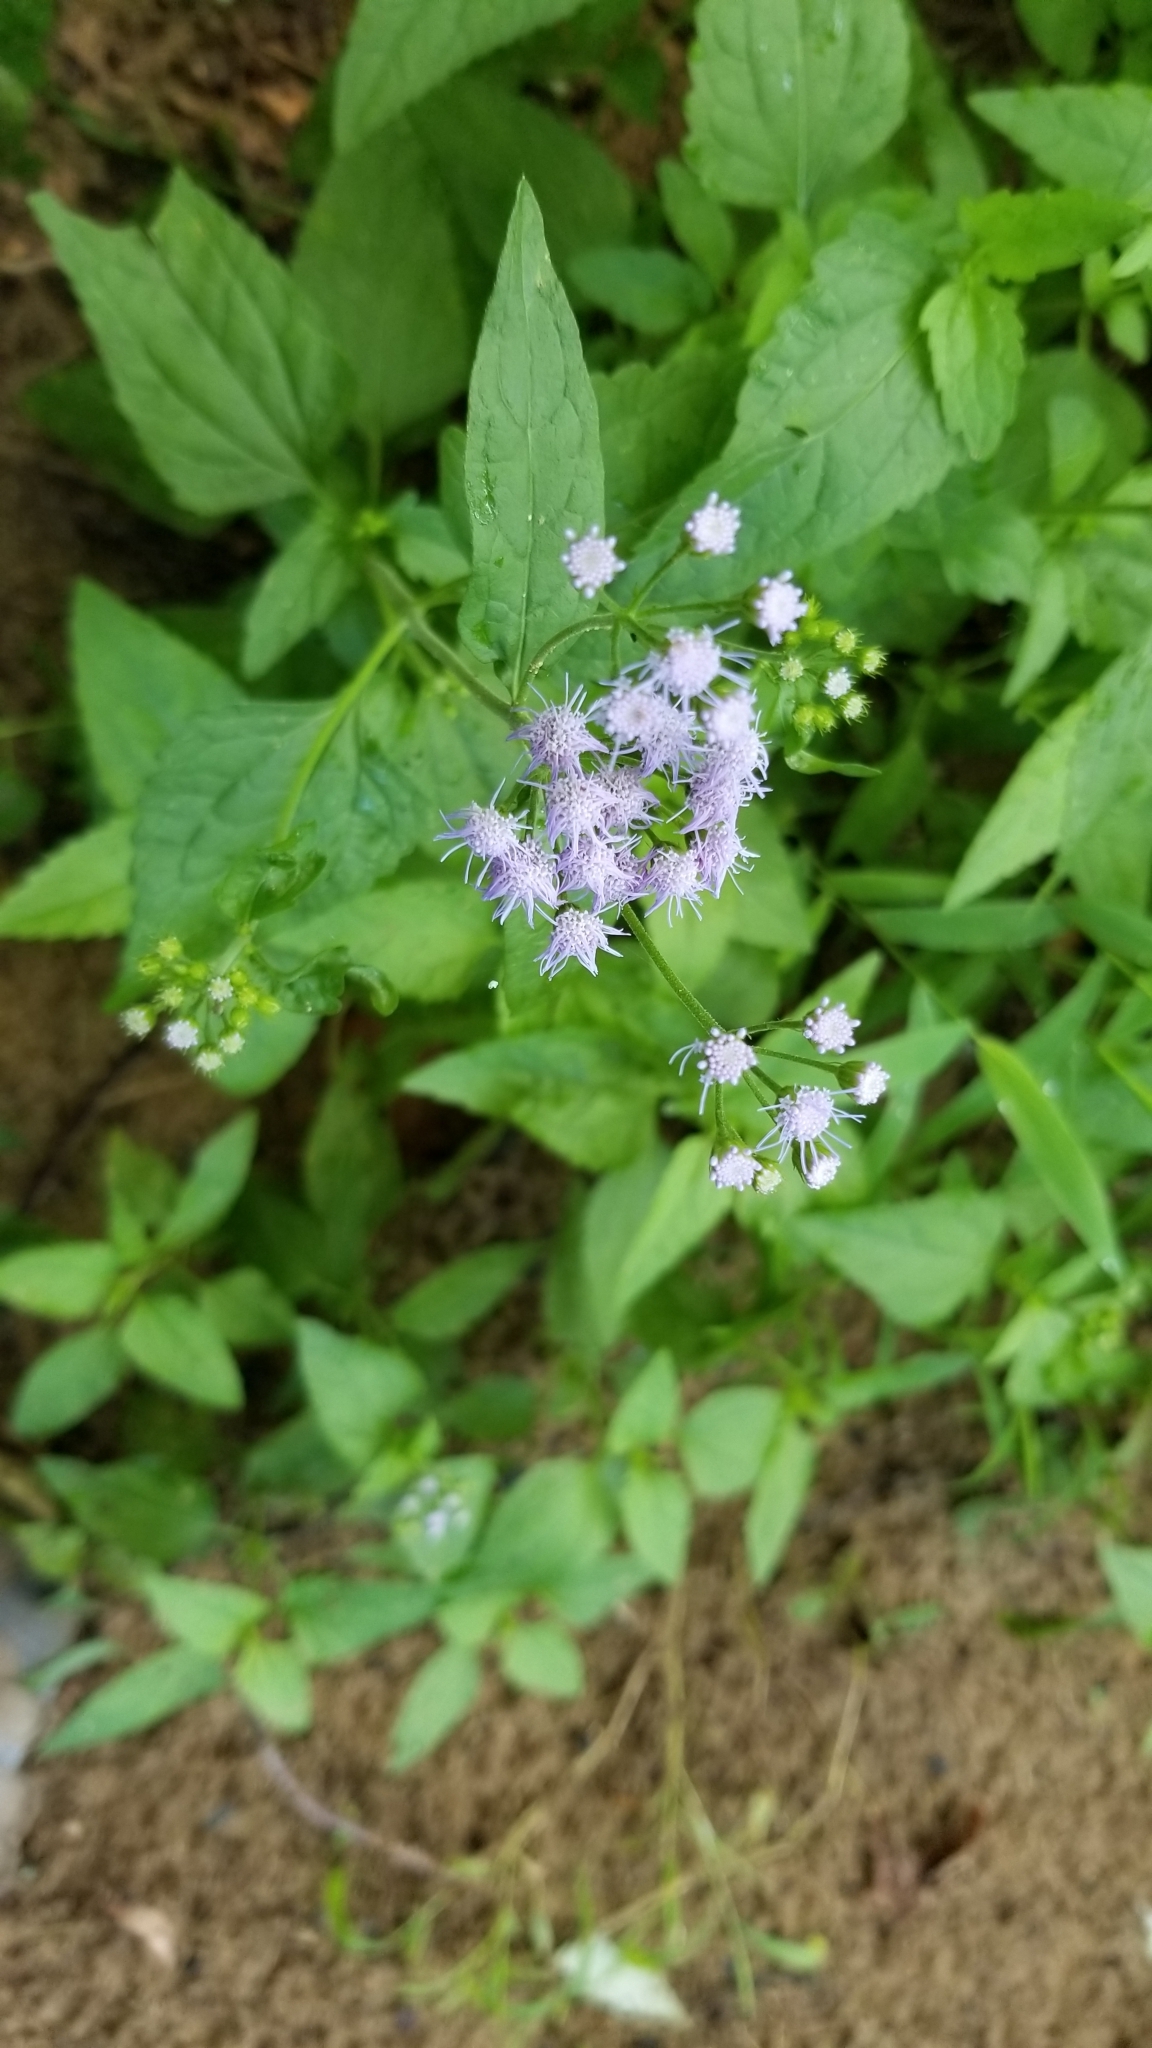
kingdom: Plantae
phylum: Tracheophyta
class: Magnoliopsida
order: Asterales
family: Asteraceae
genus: Conoclinium
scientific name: Conoclinium coelestinum
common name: Blue mistflower
